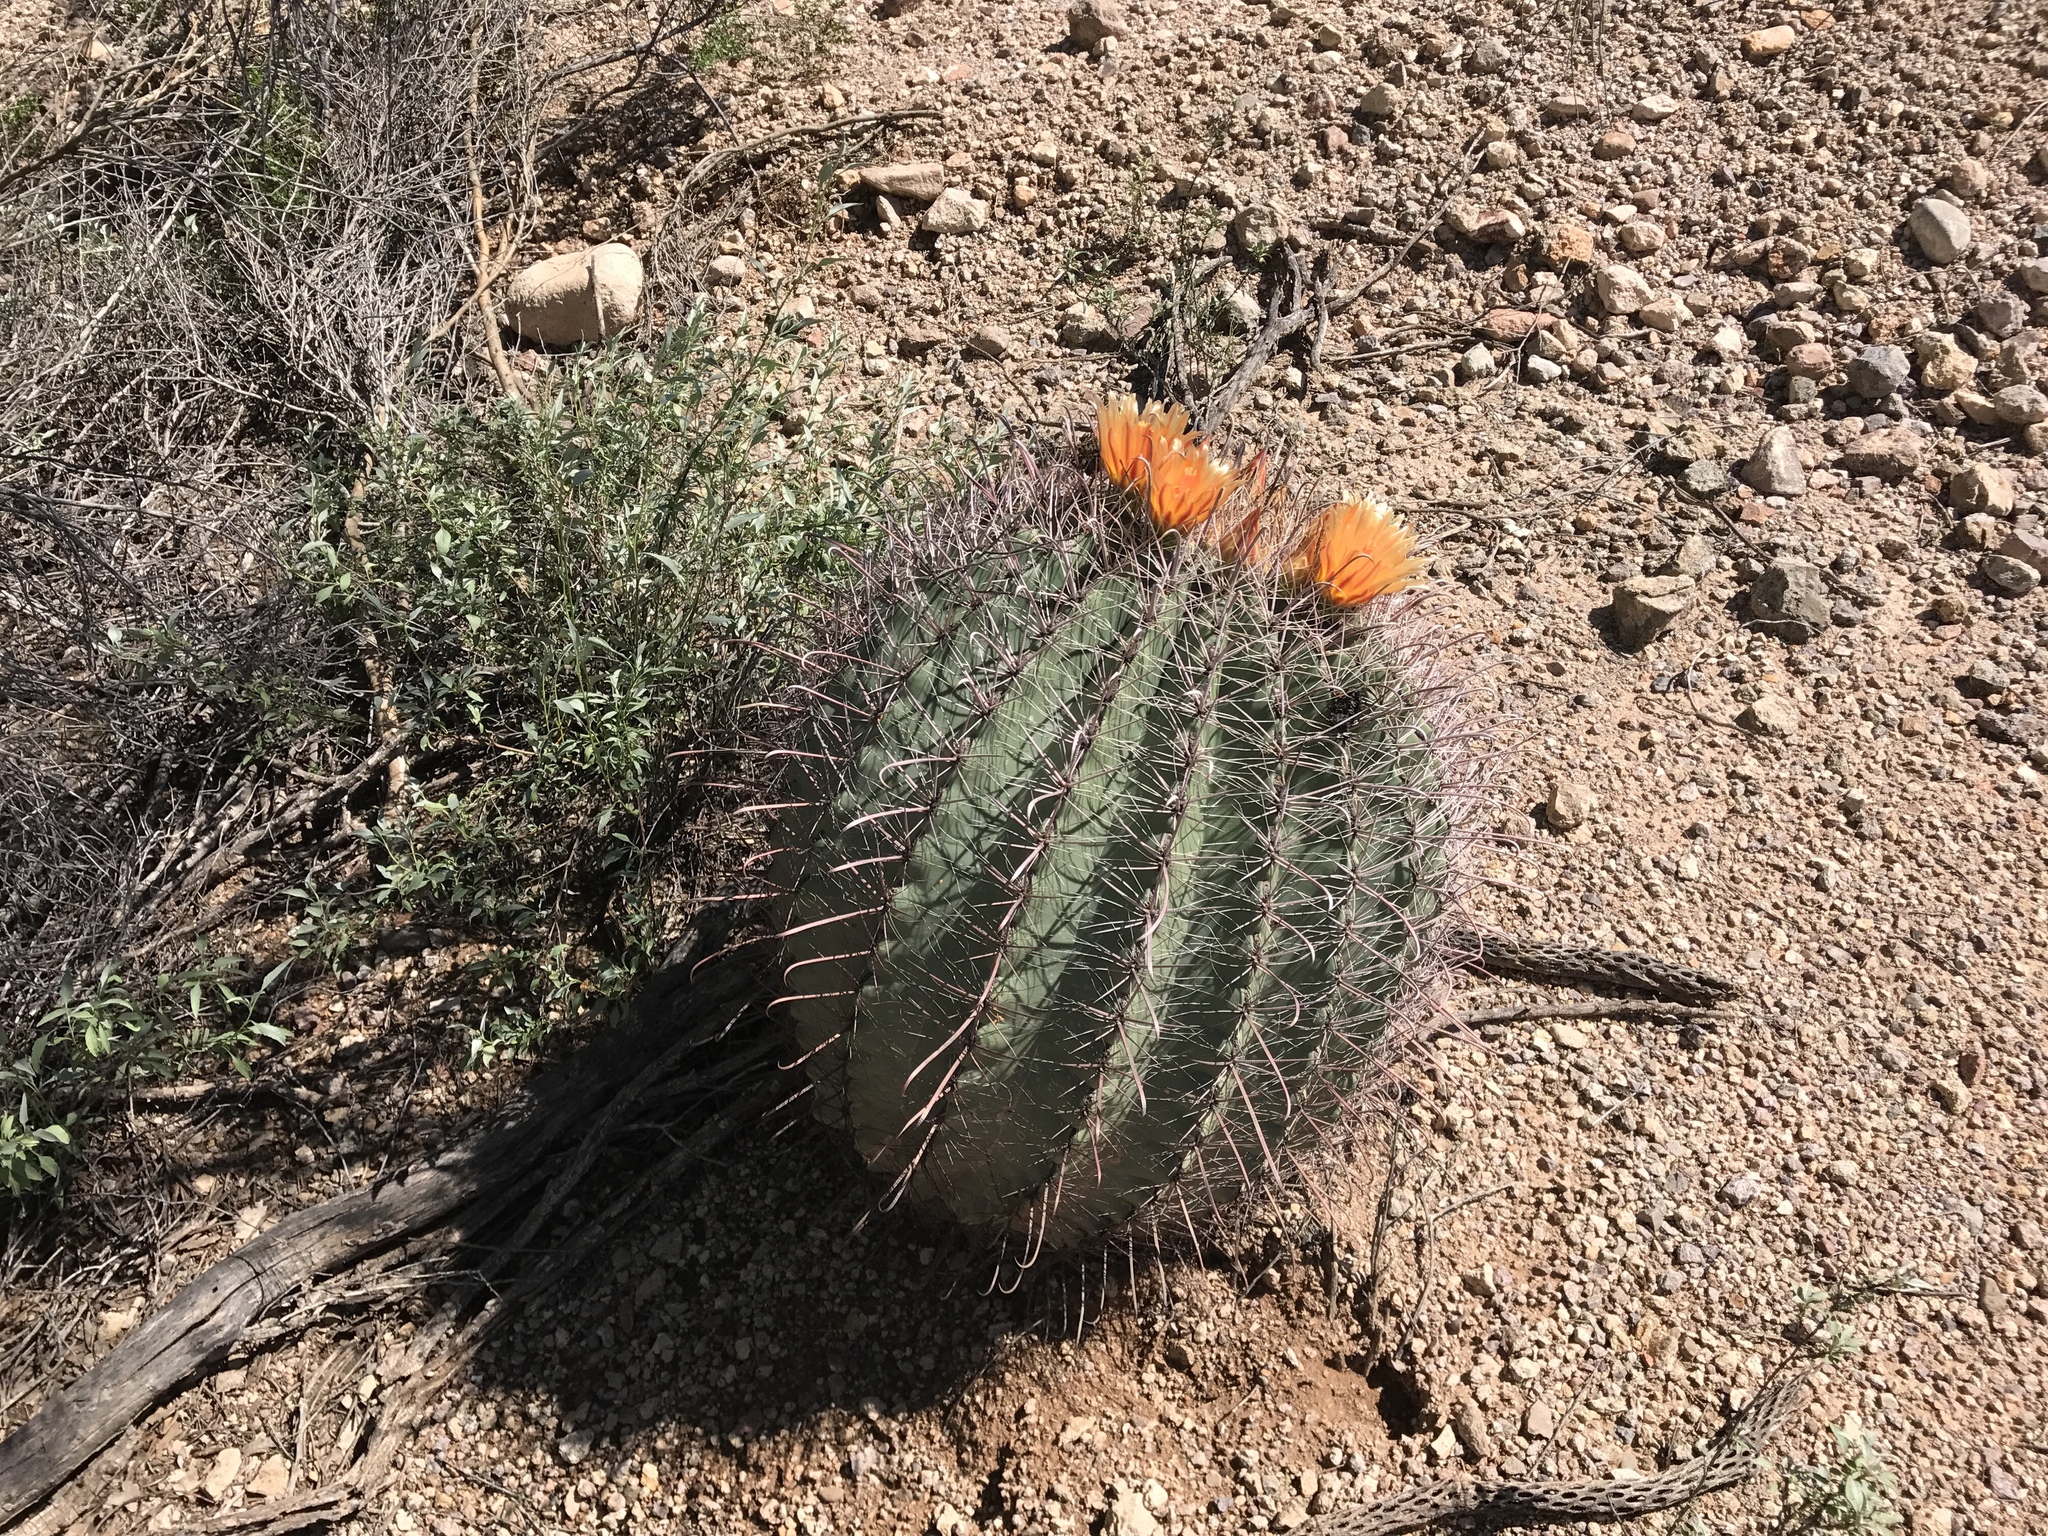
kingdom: Plantae
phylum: Tracheophyta
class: Magnoliopsida
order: Caryophyllales
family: Cactaceae
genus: Ferocactus
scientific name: Ferocactus wislizeni
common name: Candy barrel cactus
